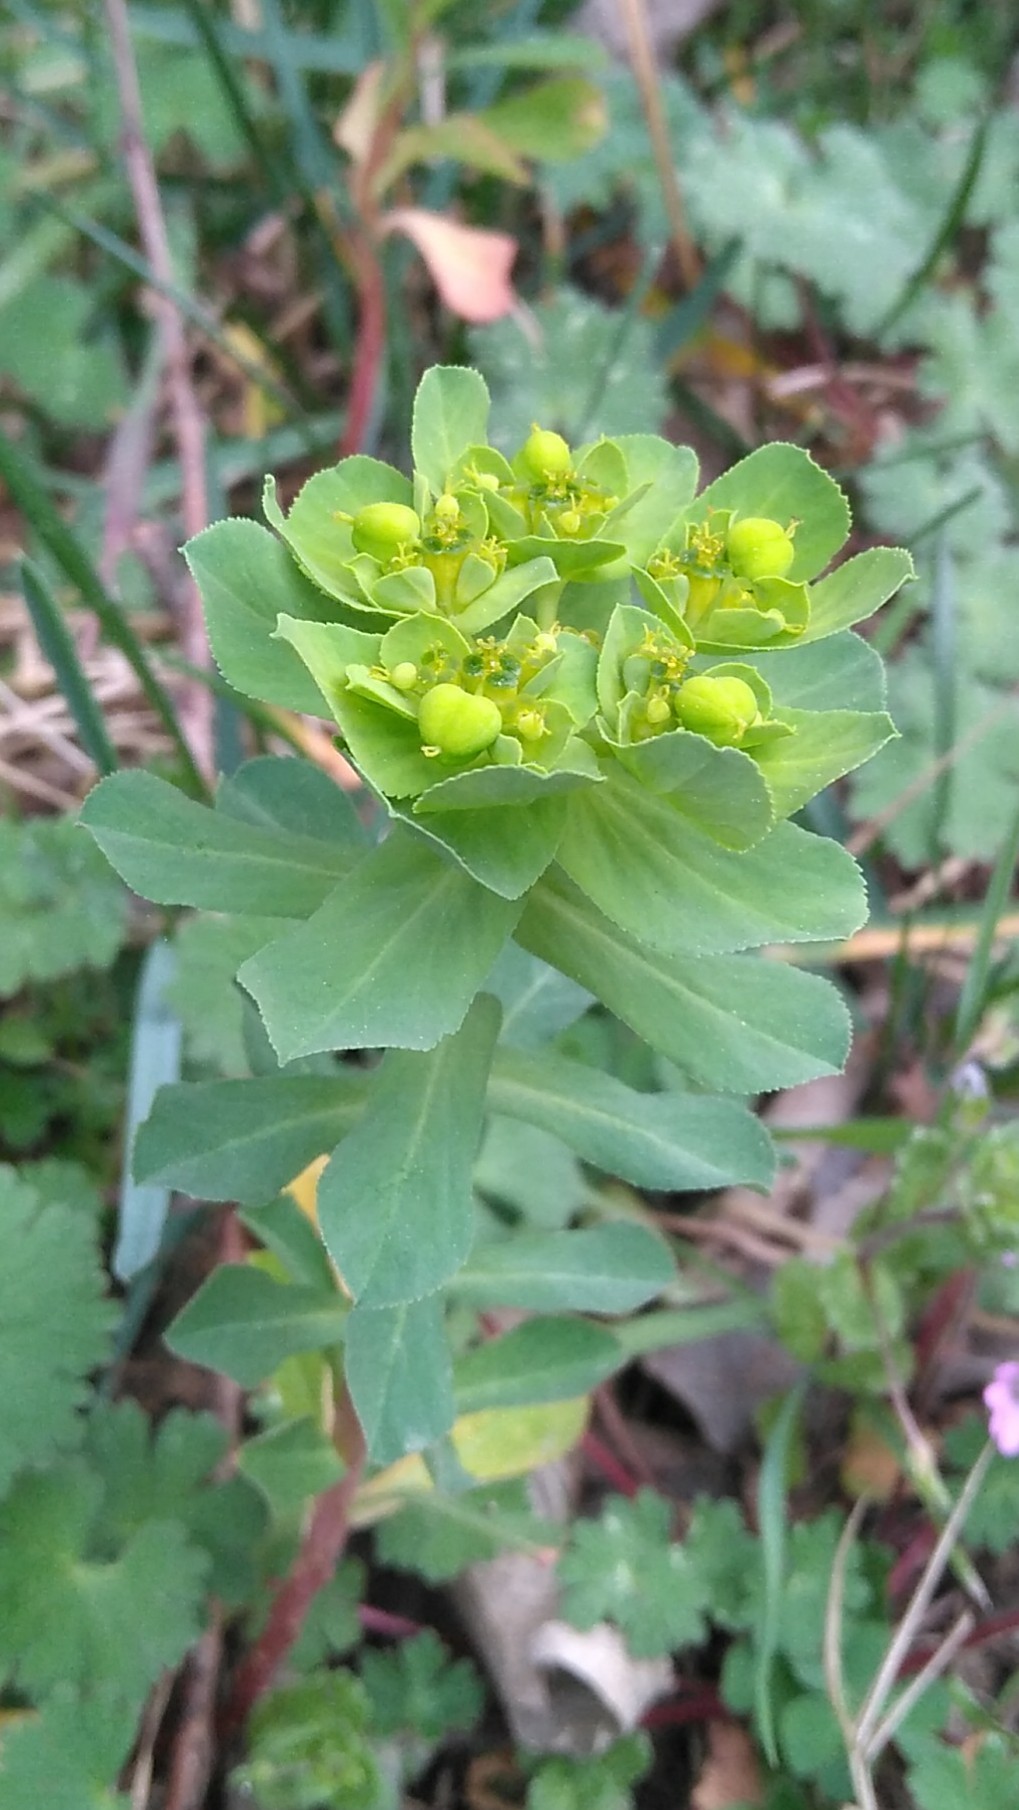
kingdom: Plantae
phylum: Tracheophyta
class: Magnoliopsida
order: Malpighiales
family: Euphorbiaceae
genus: Euphorbia
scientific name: Euphorbia helioscopia
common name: Sun spurge
